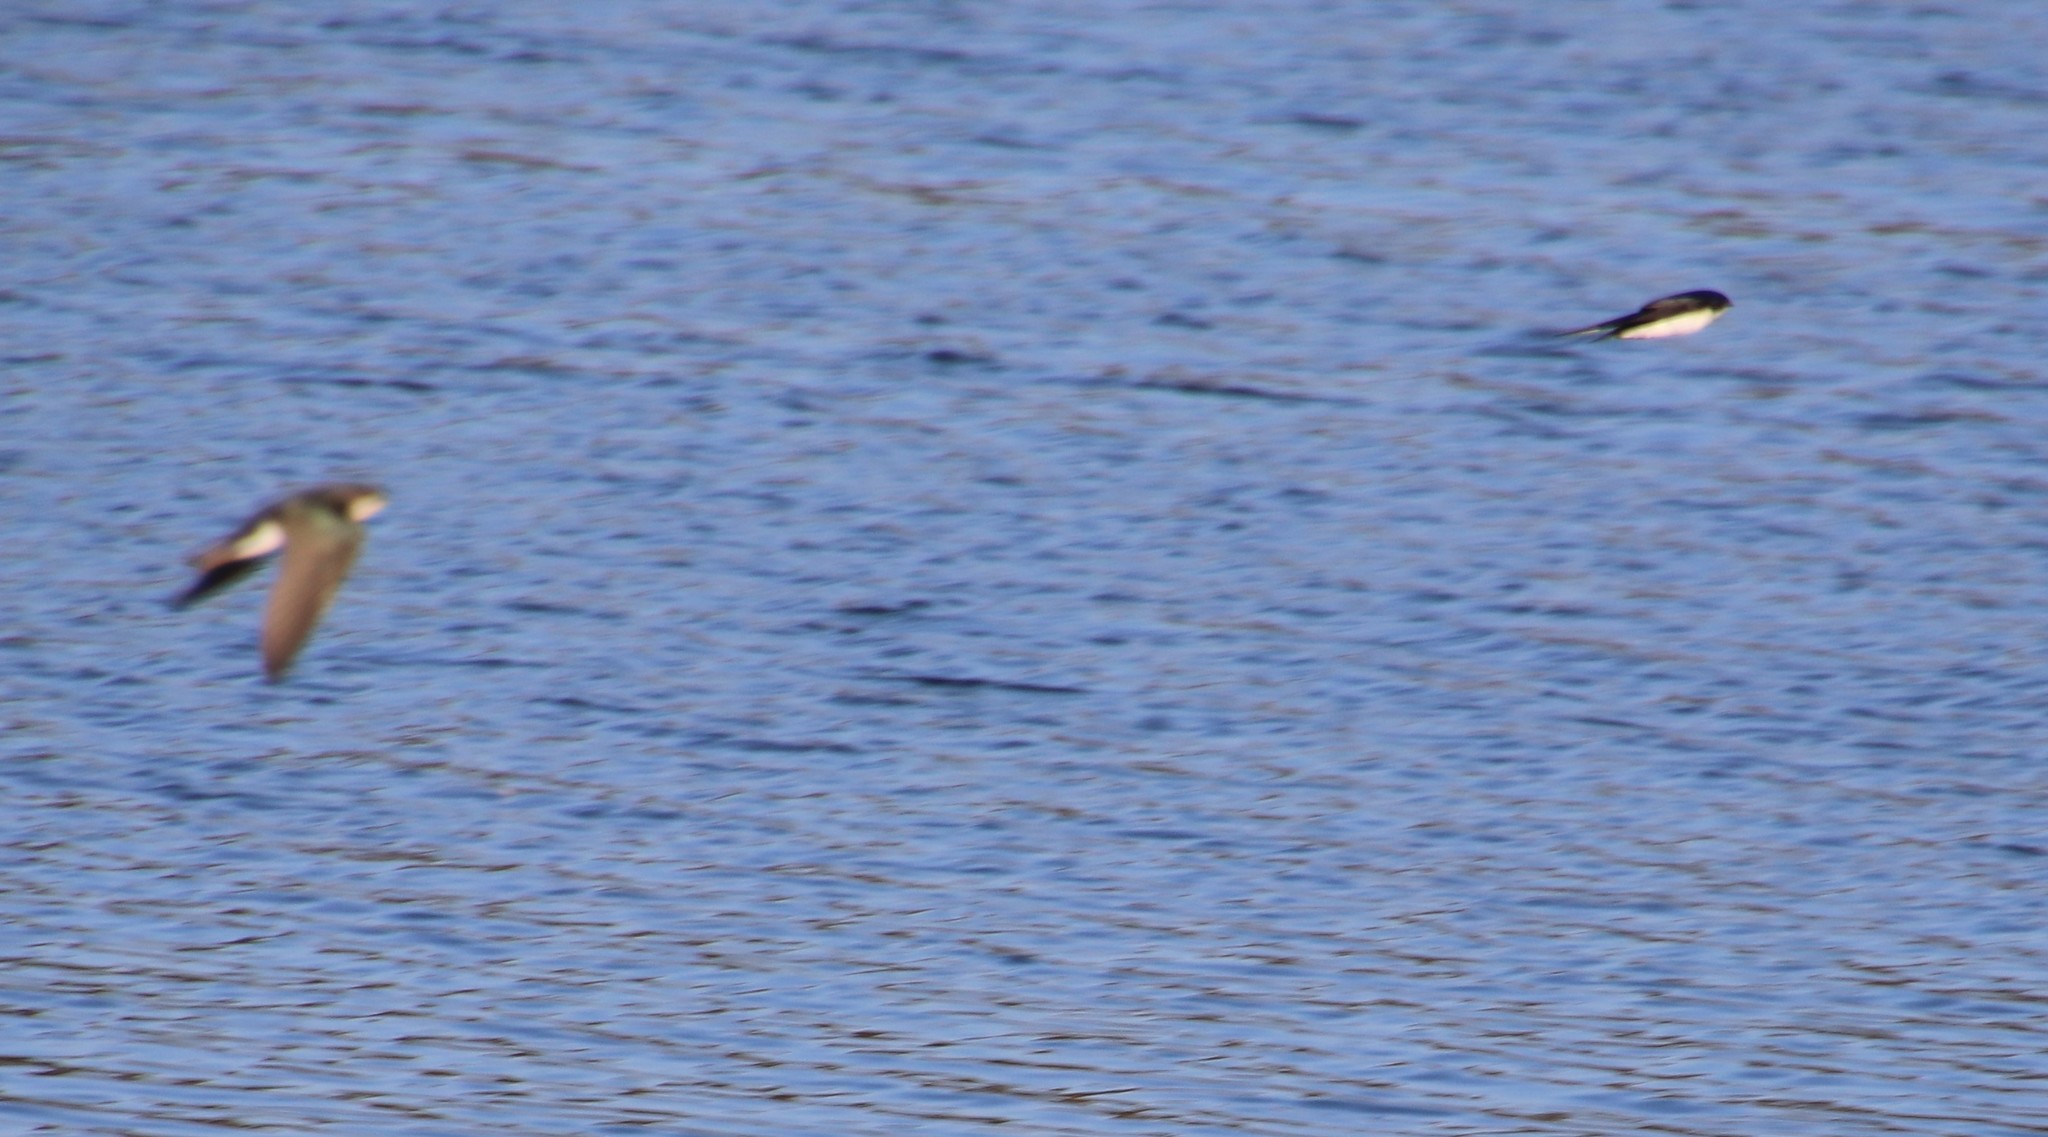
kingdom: Animalia
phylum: Chordata
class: Aves
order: Passeriformes
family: Hirundinidae
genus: Tachycineta
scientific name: Tachycineta bicolor
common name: Tree swallow
